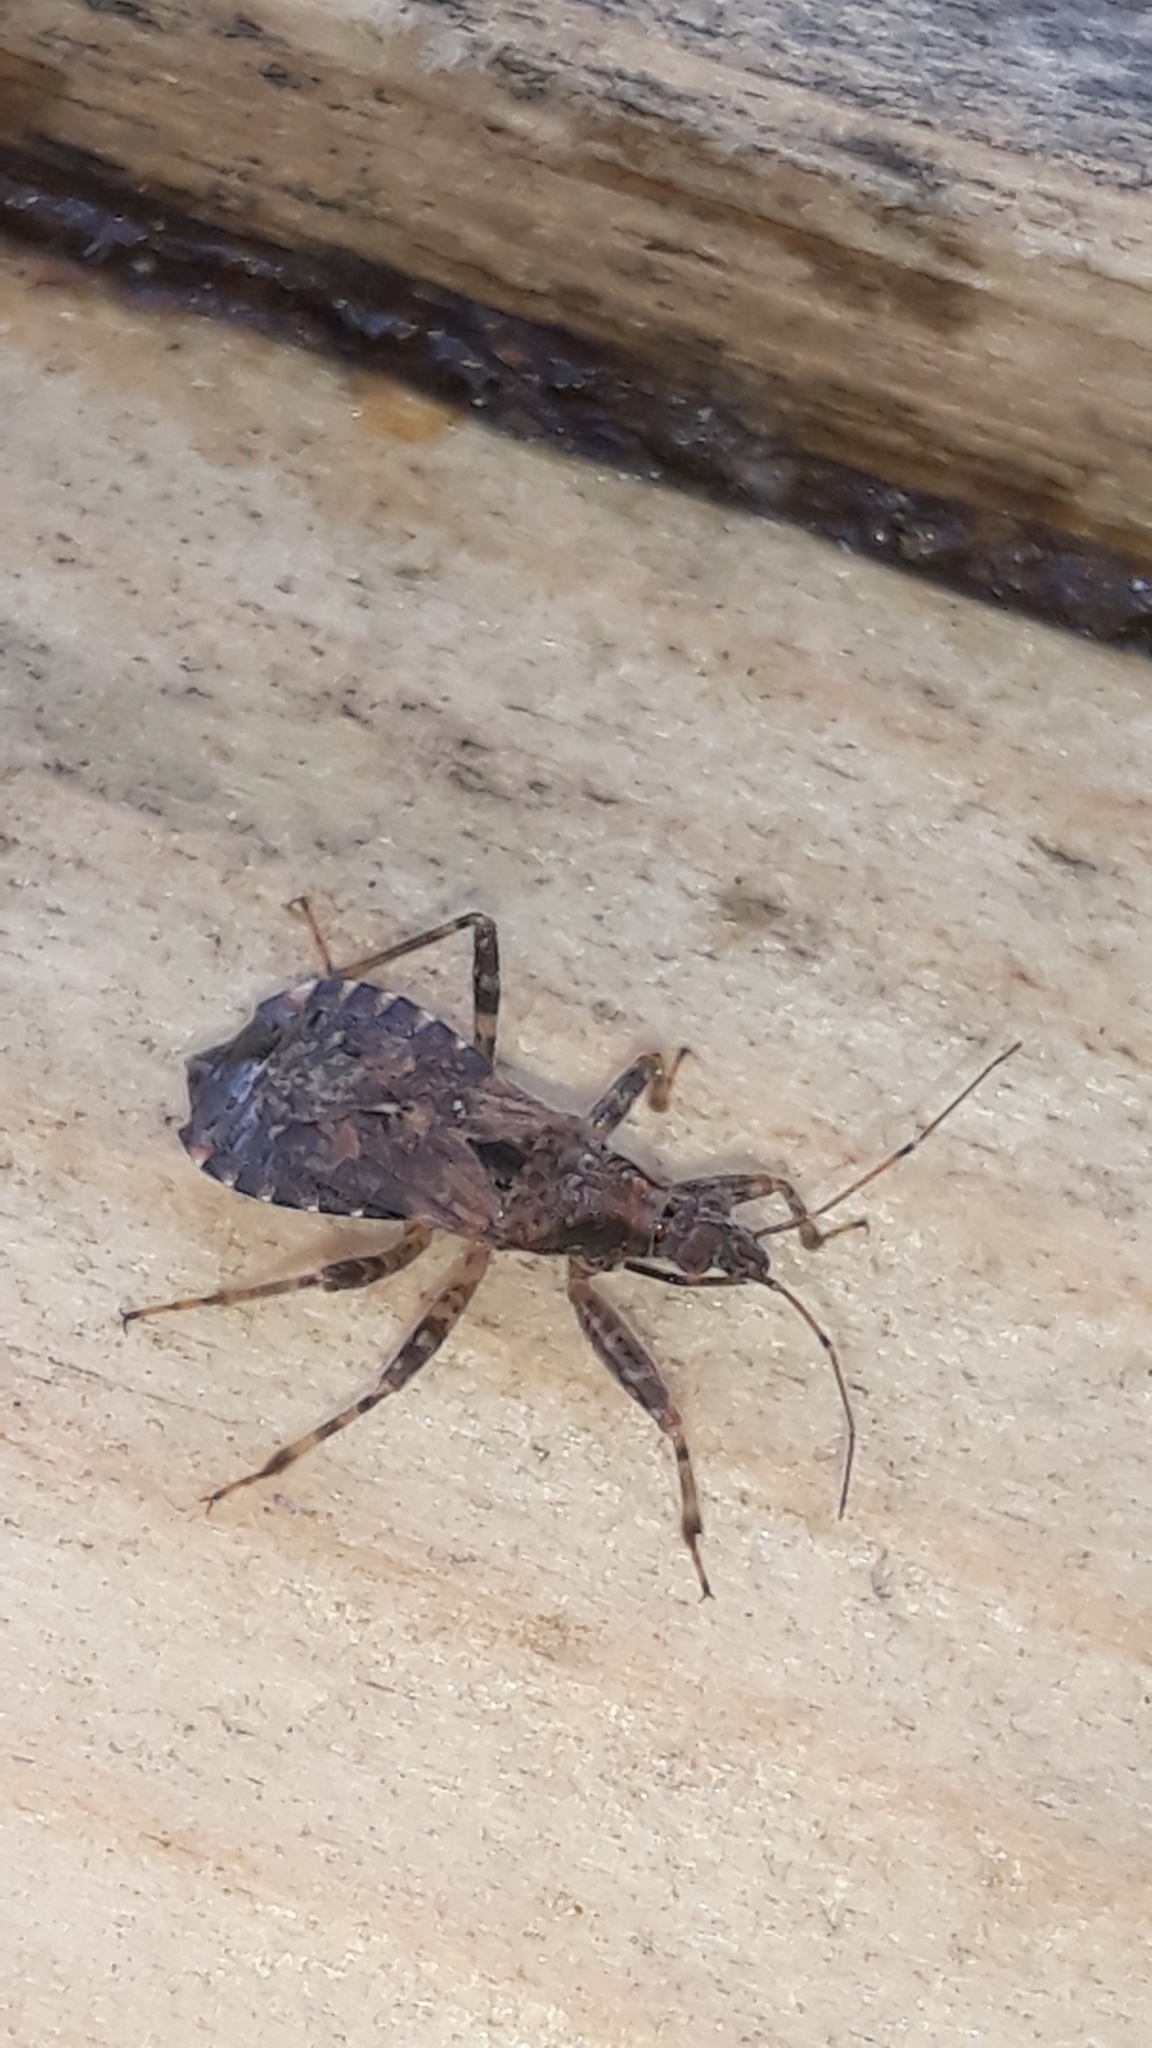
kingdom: Animalia
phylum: Arthropoda
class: Insecta
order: Hemiptera
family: Nabidae
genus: Himacerus
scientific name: Himacerus mirmicoides
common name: Ant damsel bug
